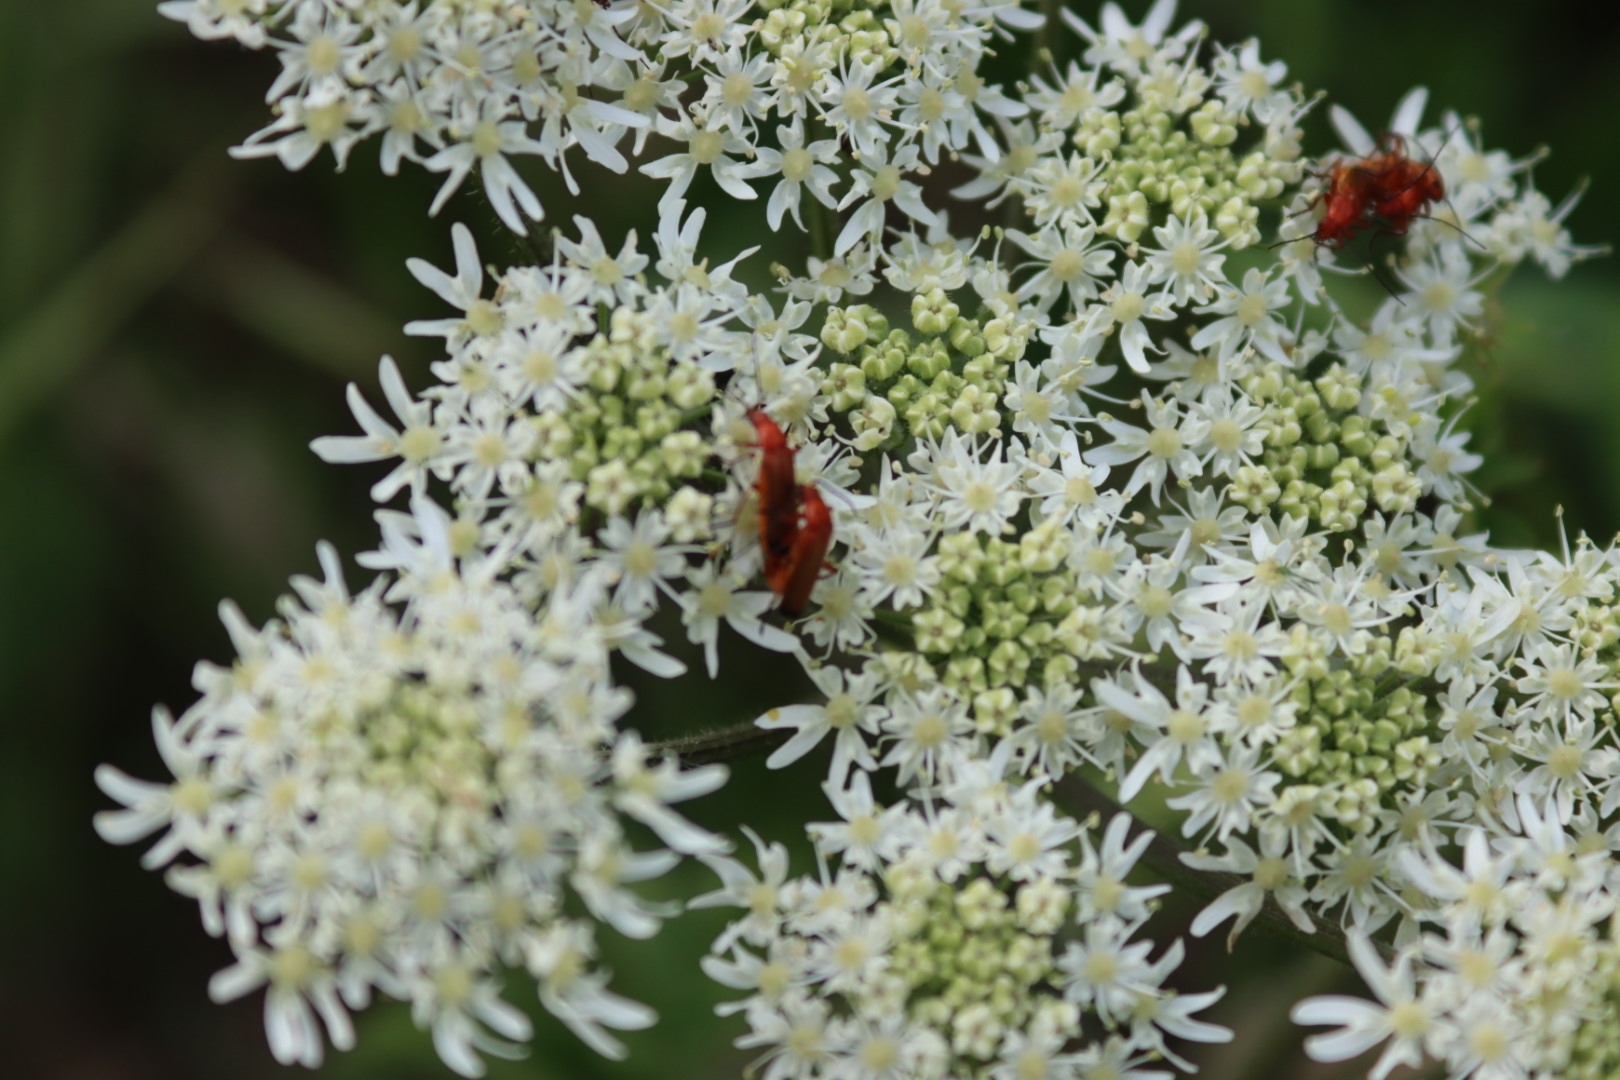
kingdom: Animalia
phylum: Arthropoda
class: Insecta
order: Coleoptera
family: Cantharidae
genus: Rhagonycha
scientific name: Rhagonycha fulva
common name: Common red soldier beetle
